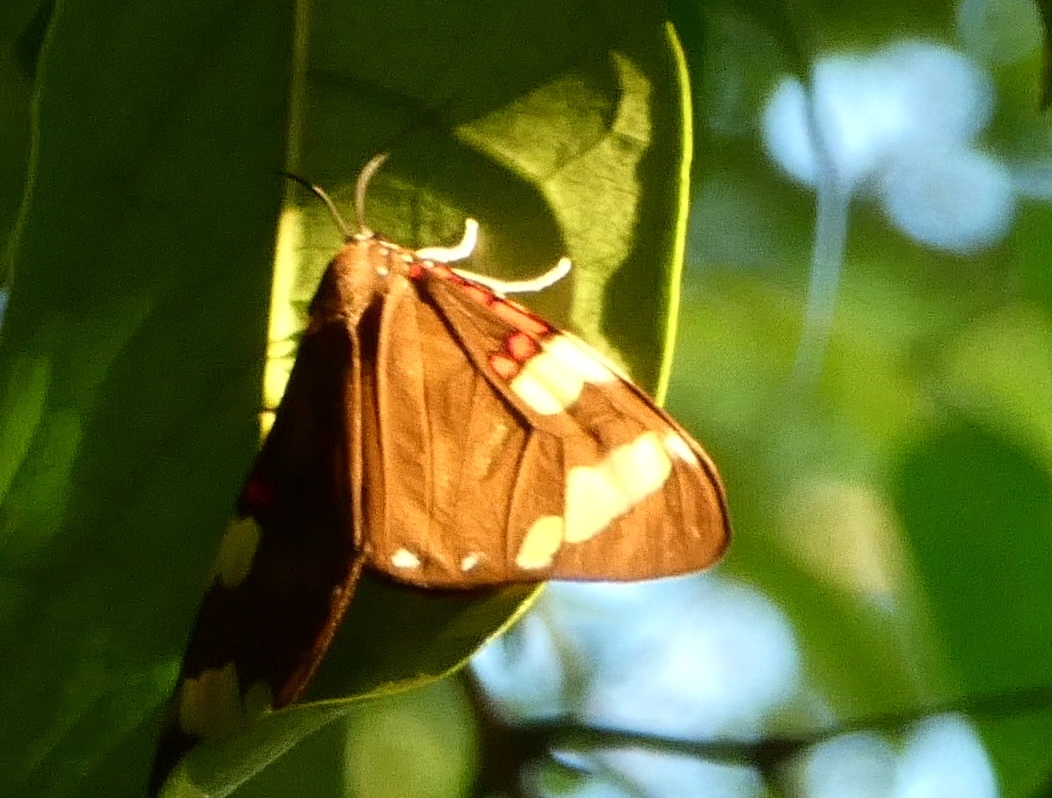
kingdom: Animalia
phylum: Arthropoda
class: Insecta
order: Lepidoptera
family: Erebidae
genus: Phaloe
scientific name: Phaloe cruenta
